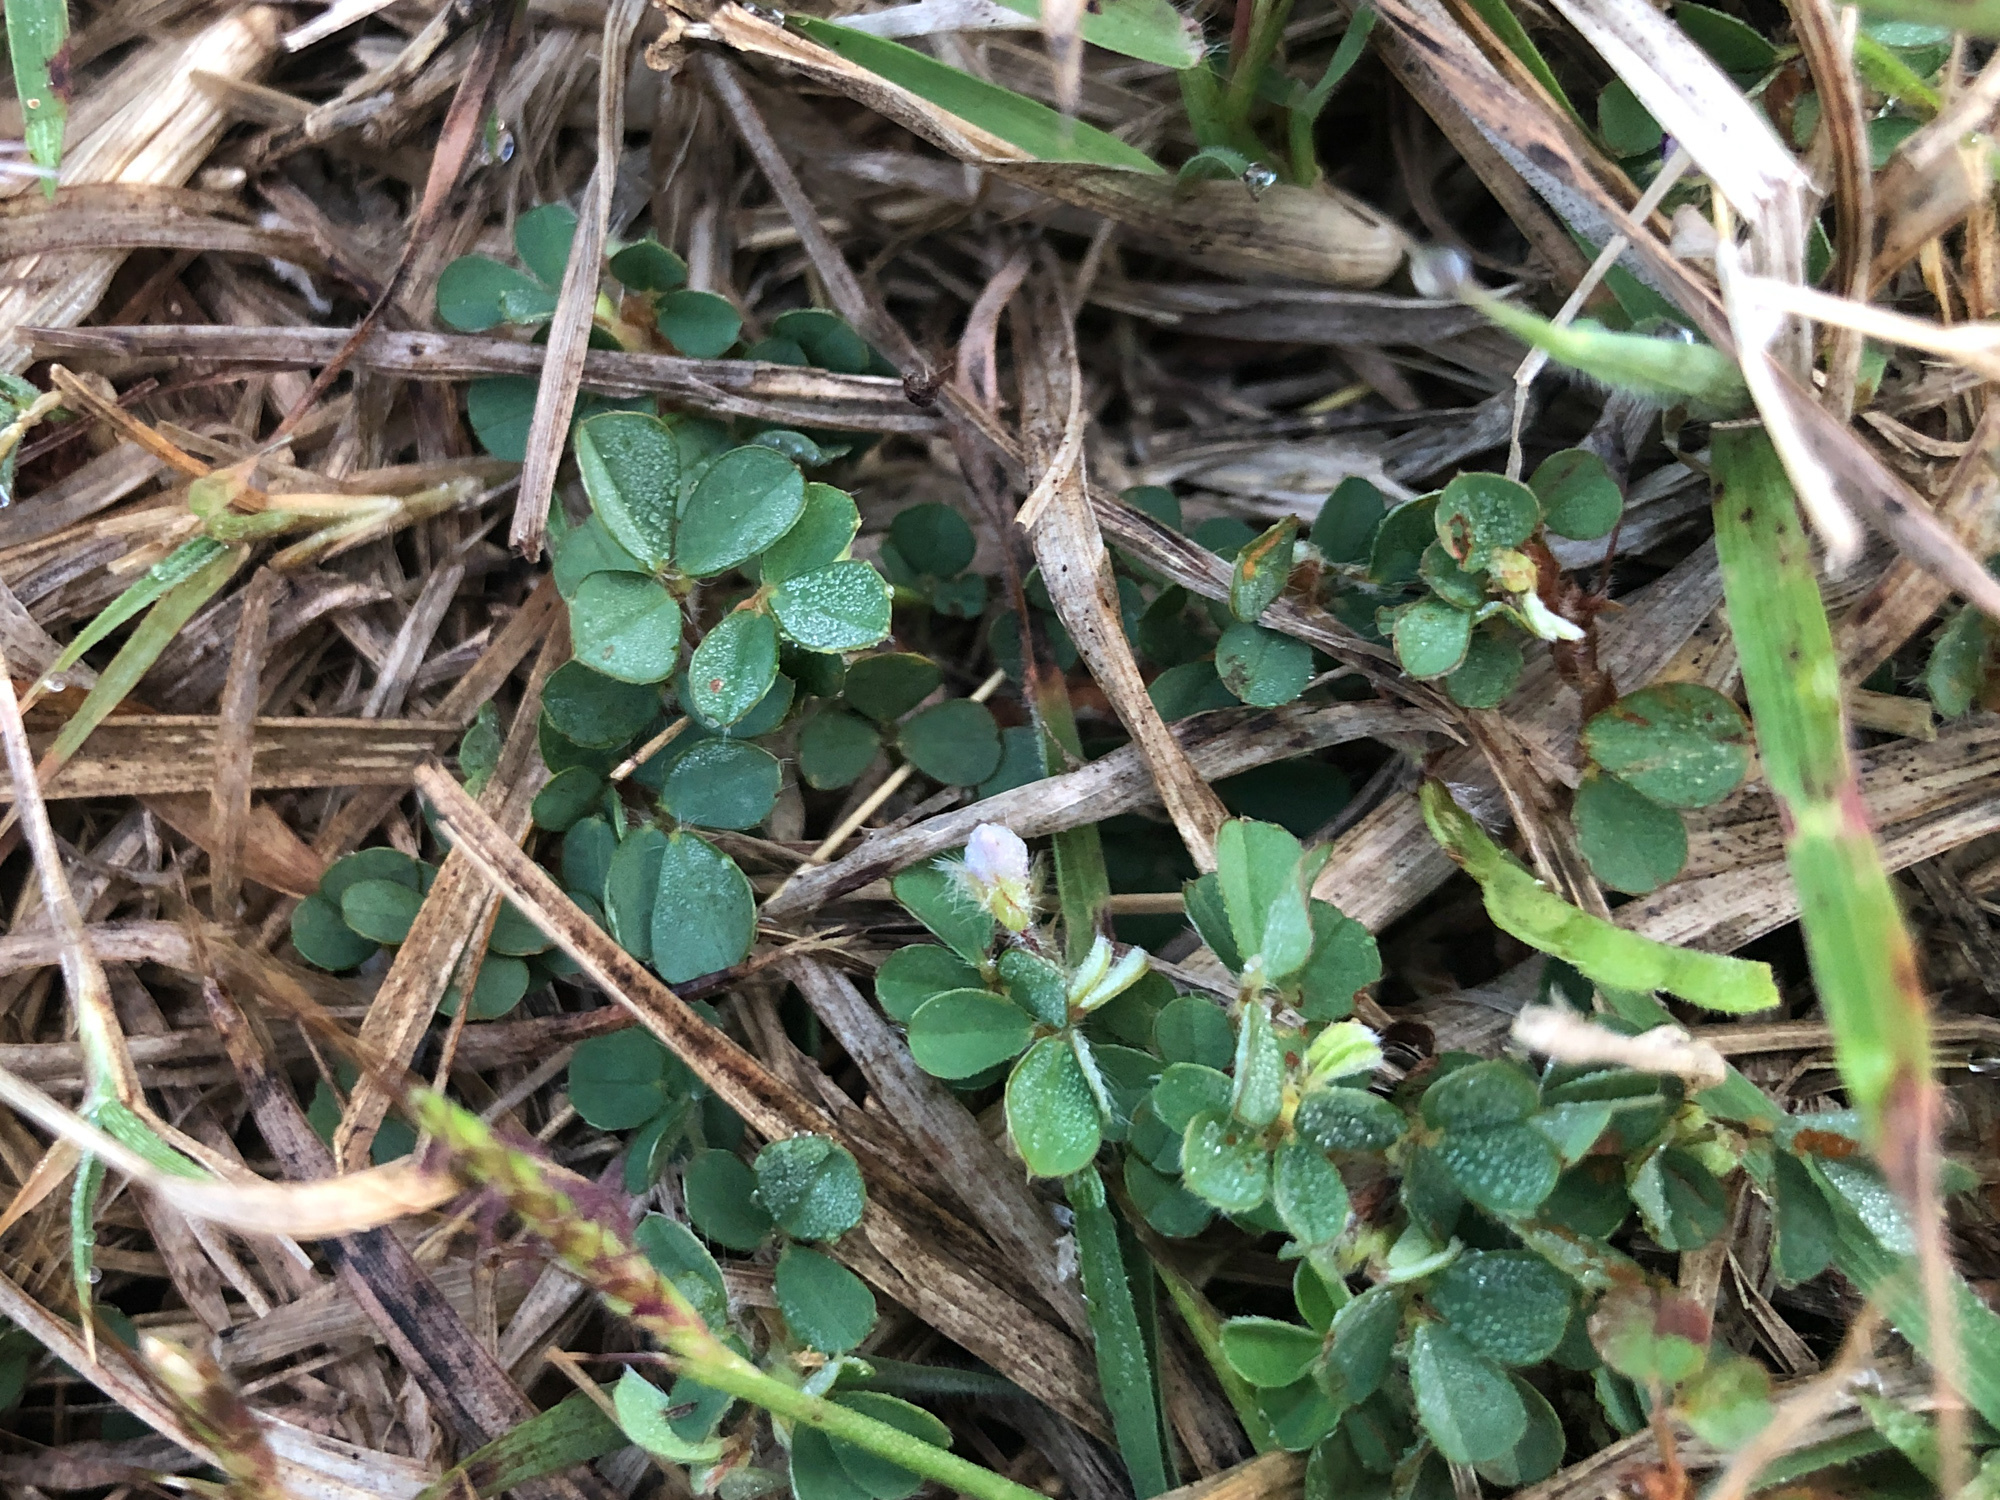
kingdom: Plantae
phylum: Tracheophyta
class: Magnoliopsida
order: Fabales
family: Fabaceae
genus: Grona
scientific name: Grona triflora
